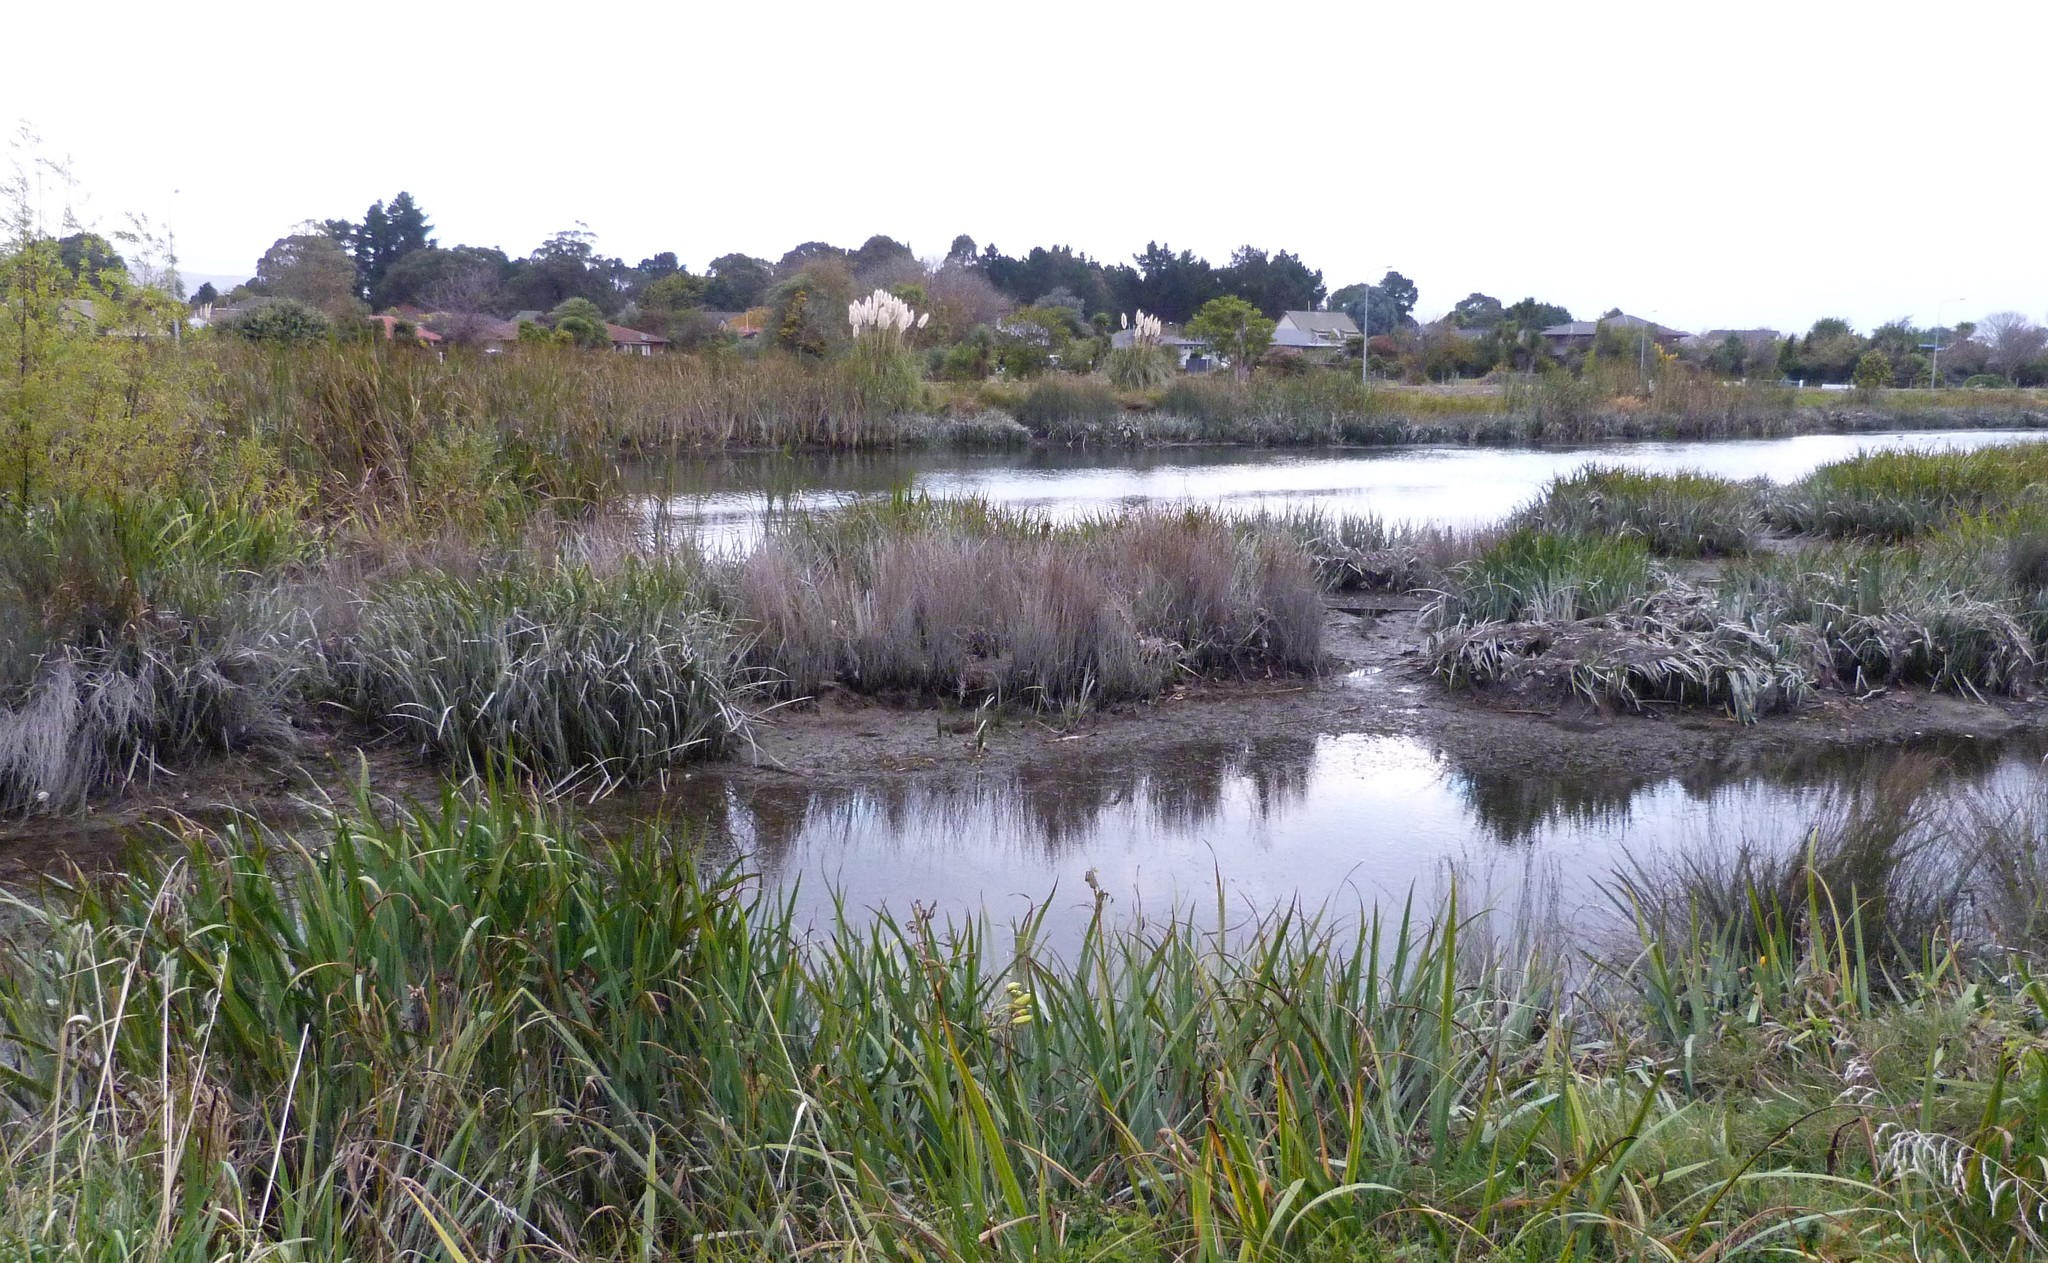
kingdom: Plantae
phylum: Tracheophyta
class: Liliopsida
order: Asparagales
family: Iridaceae
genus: Iris
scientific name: Iris pseudacorus
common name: Yellow flag
